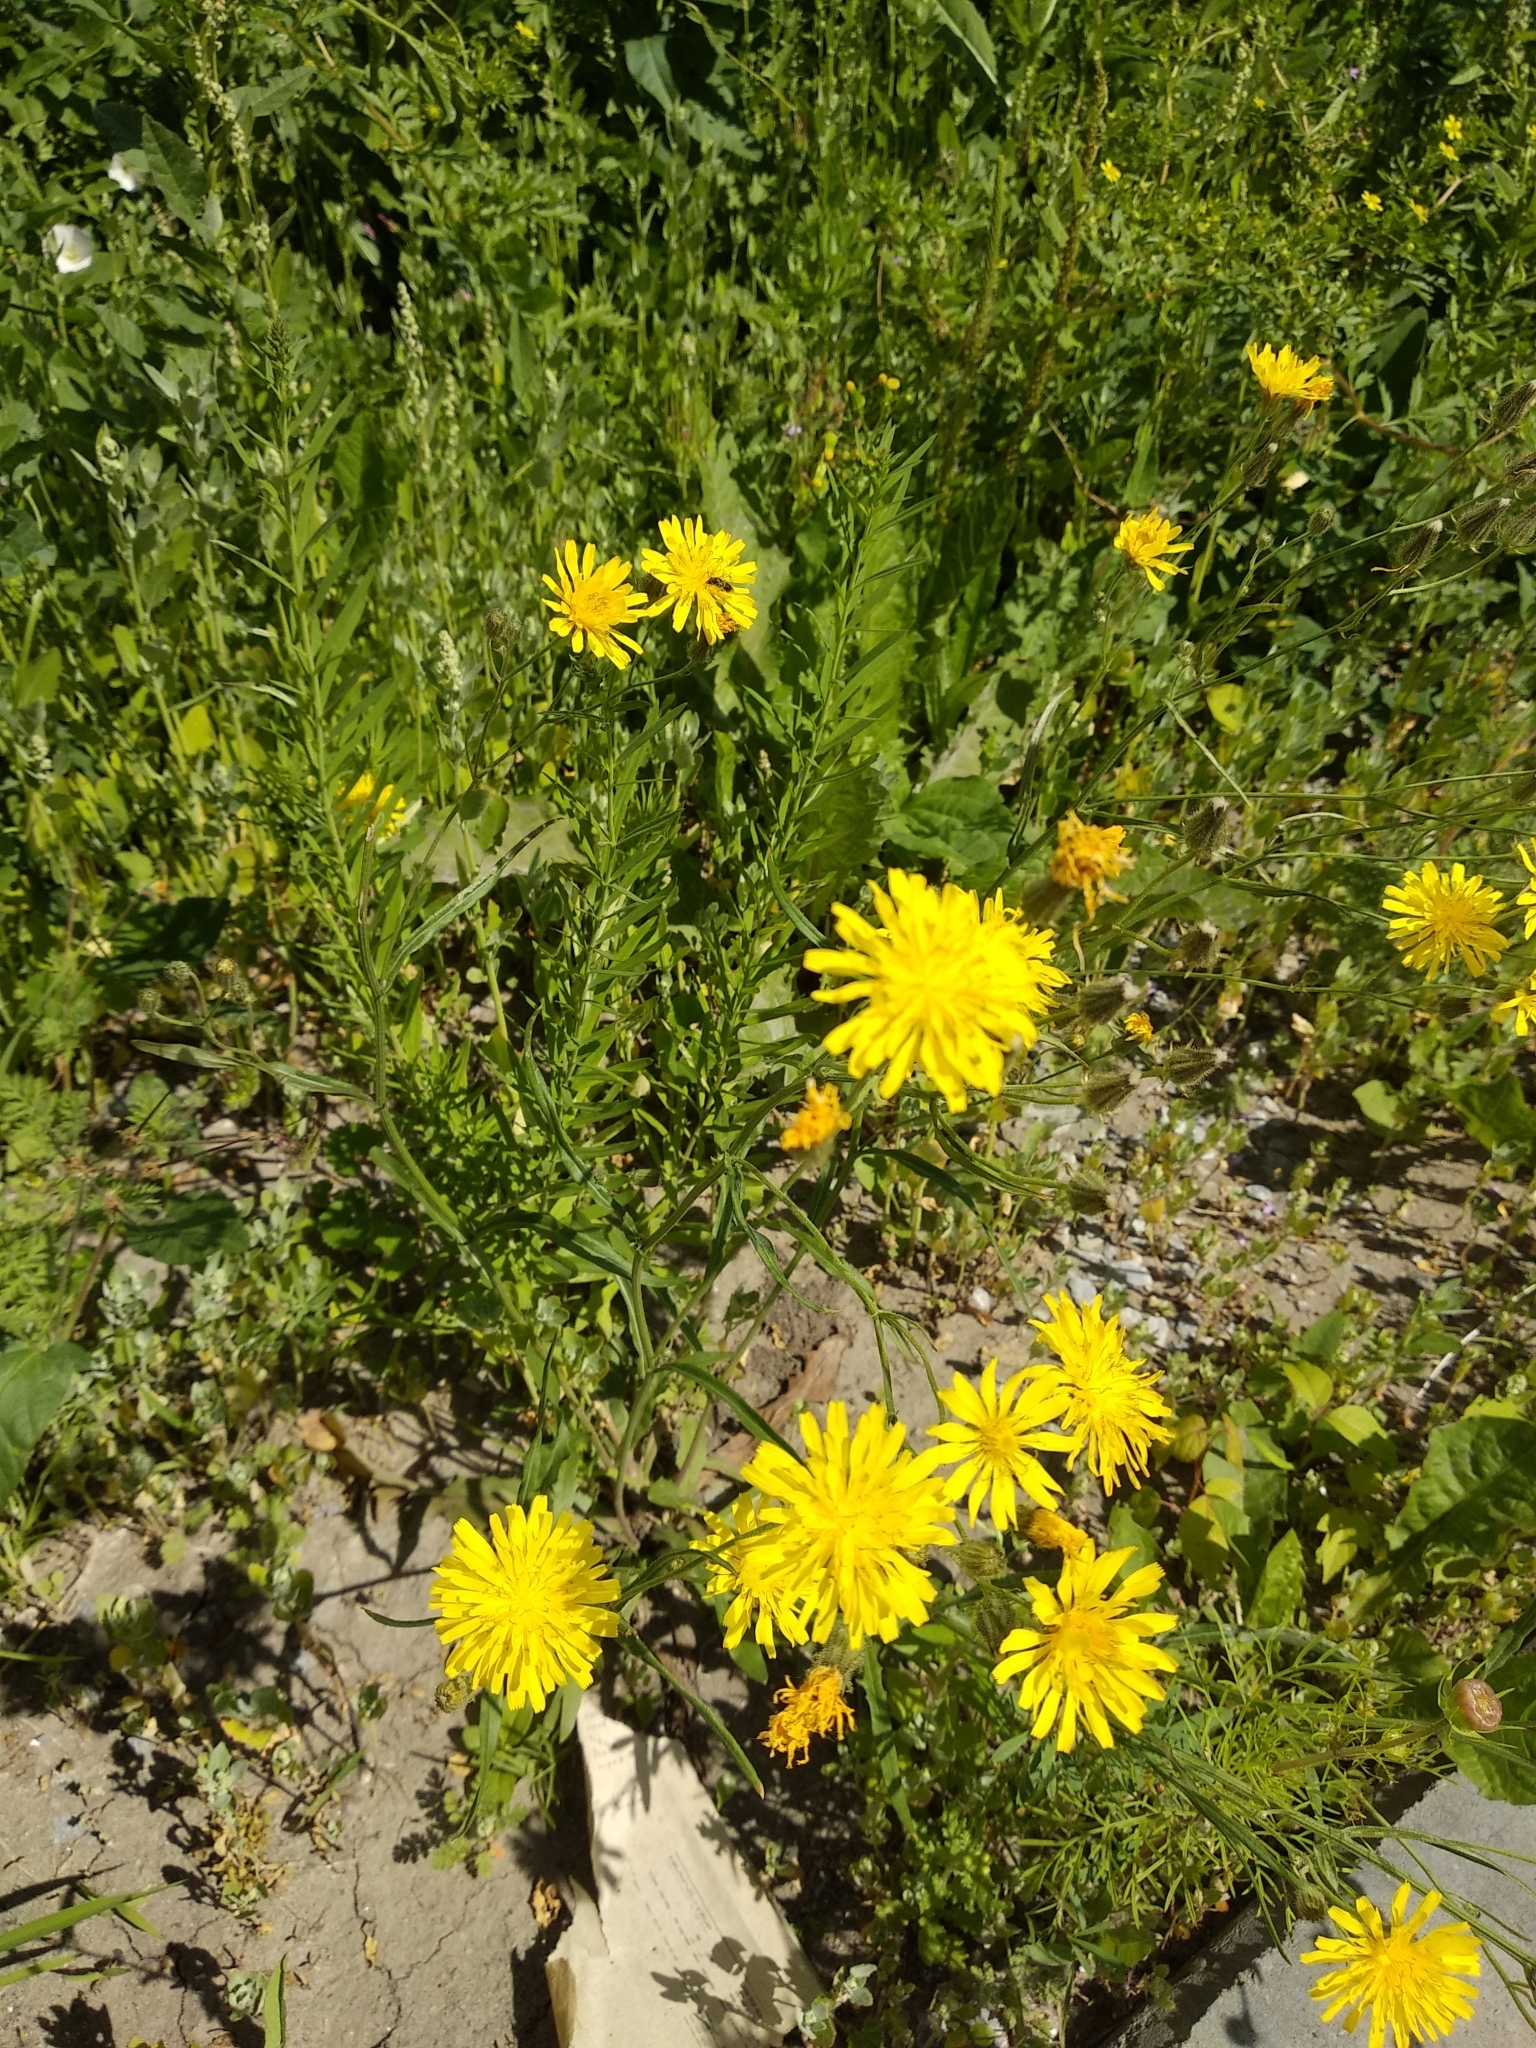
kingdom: Plantae
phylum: Tracheophyta
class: Magnoliopsida
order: Asterales
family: Asteraceae
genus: Crepis
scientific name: Crepis tectorum
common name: Narrow-leaved hawk's-beard
